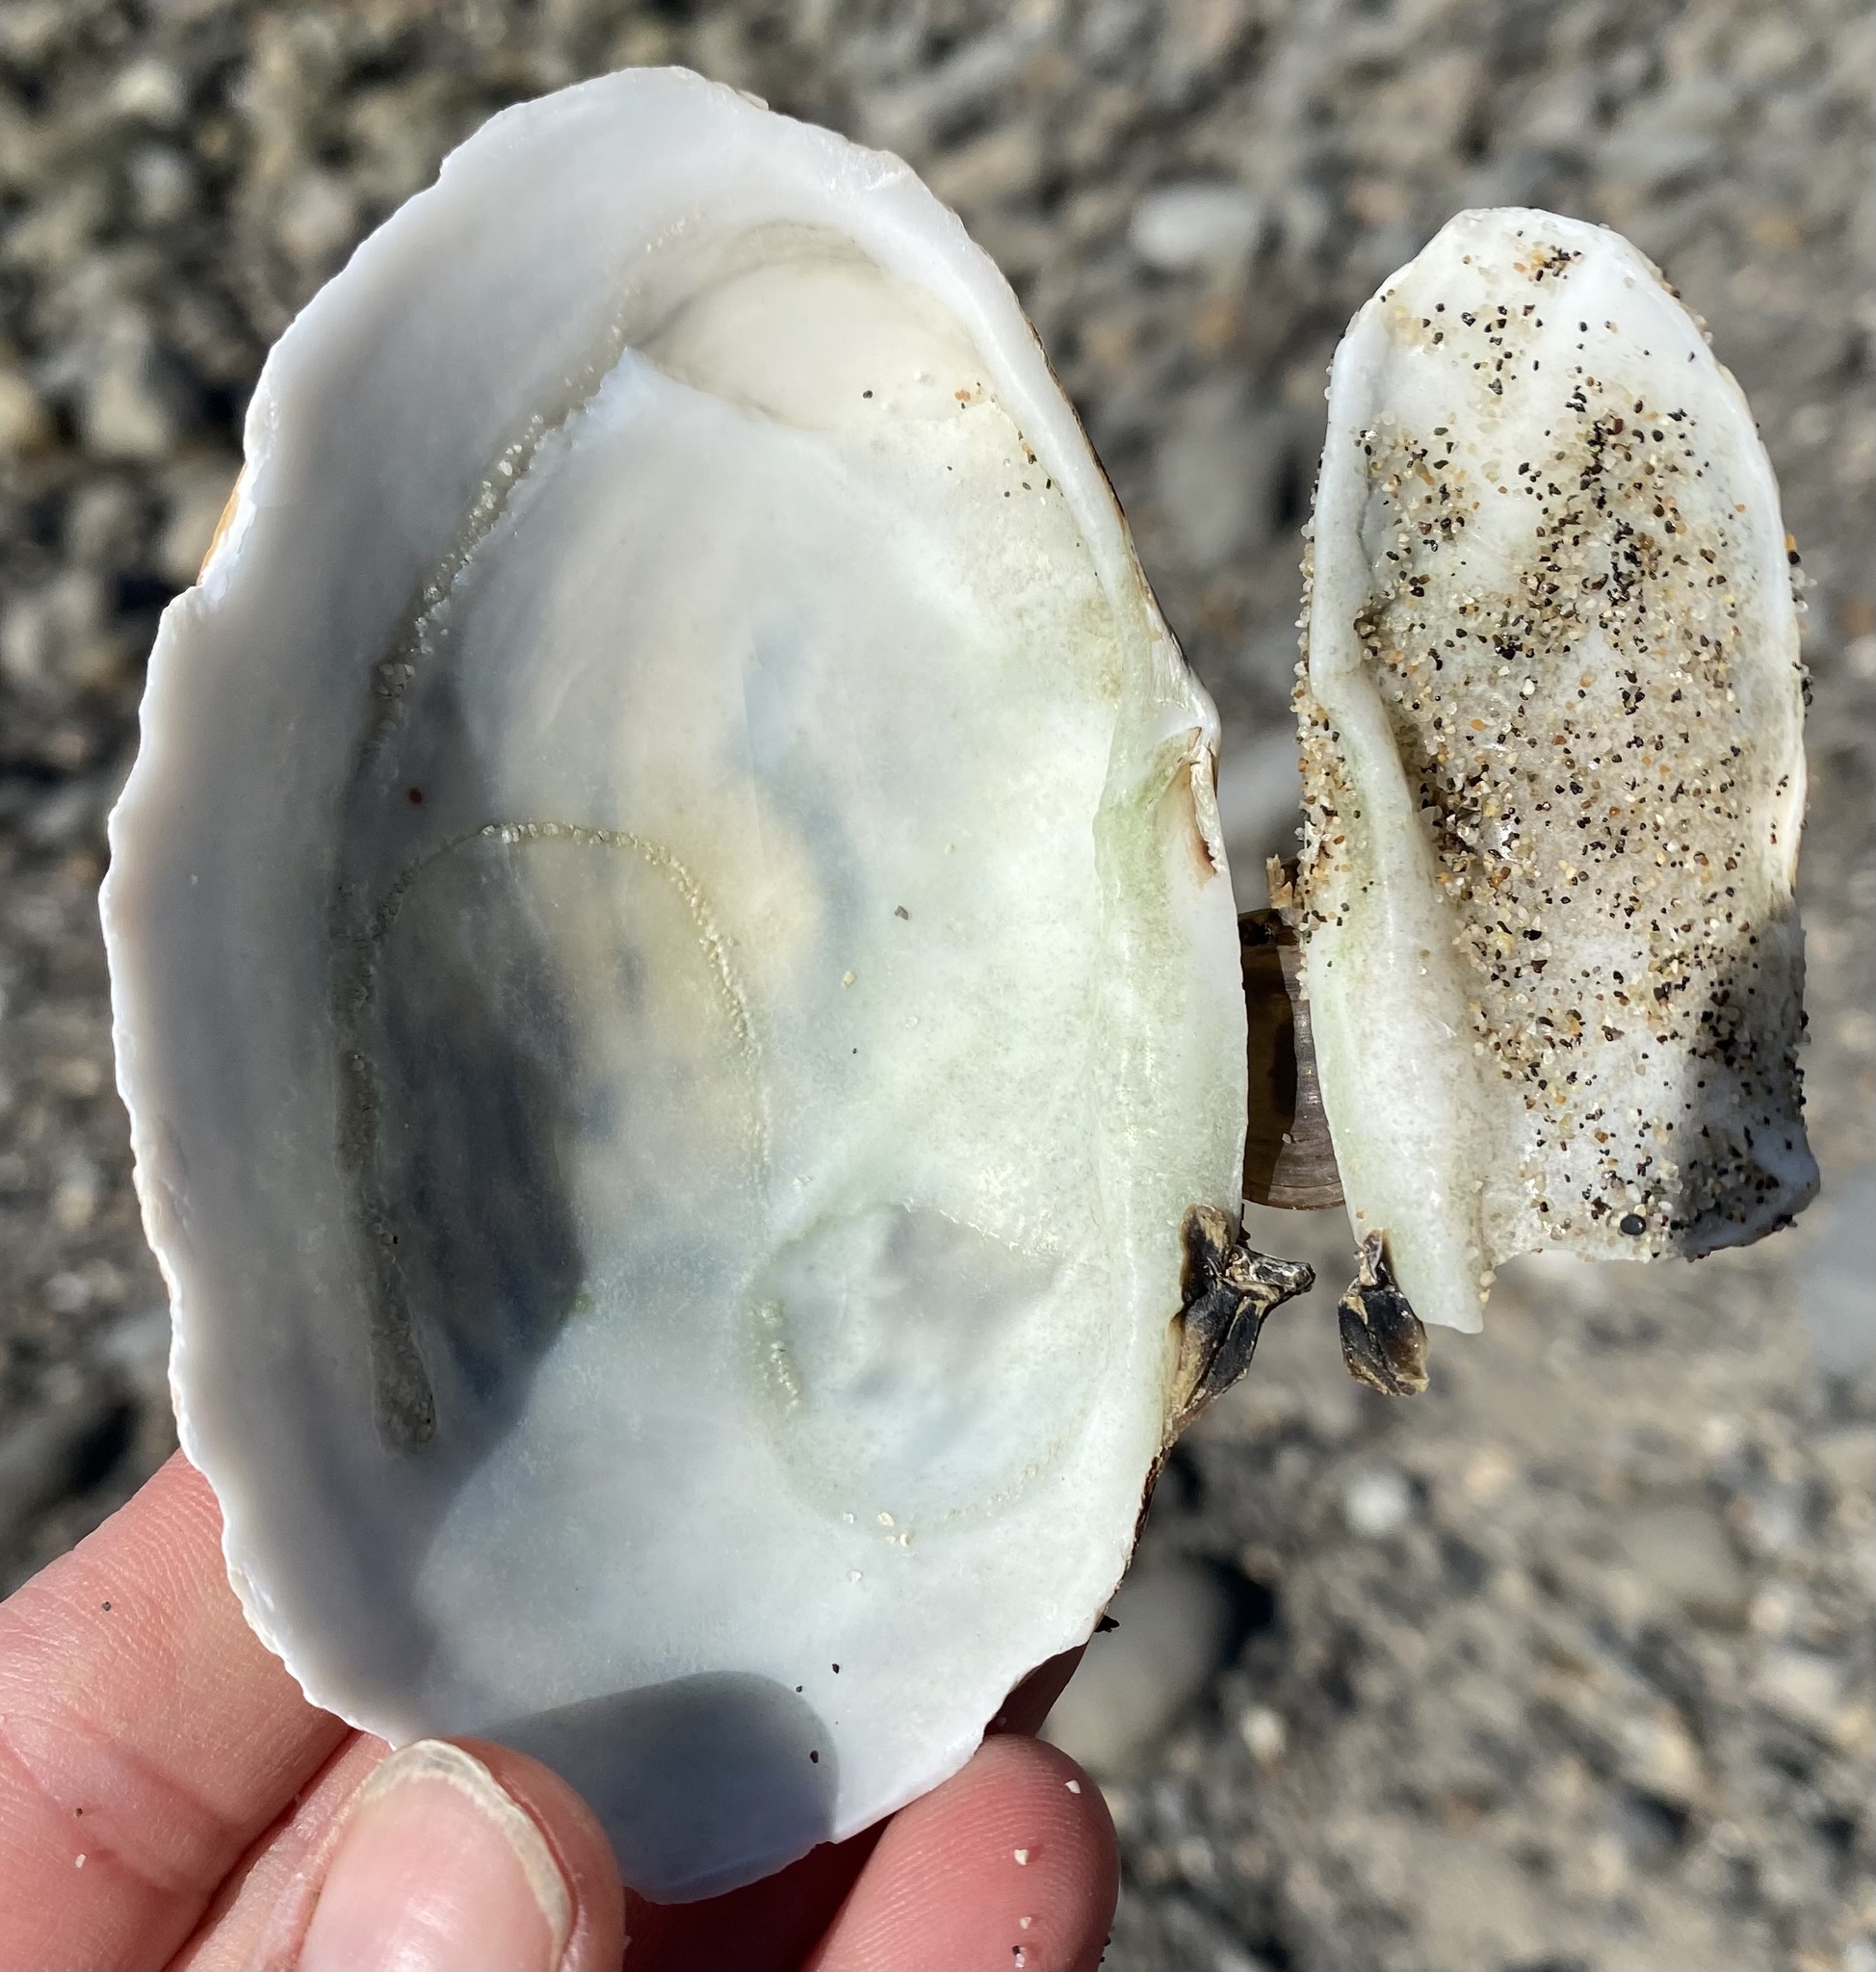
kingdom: Animalia
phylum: Mollusca
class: Bivalvia
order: Cardiida
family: Psammobiidae
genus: Gari
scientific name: Gari californica
